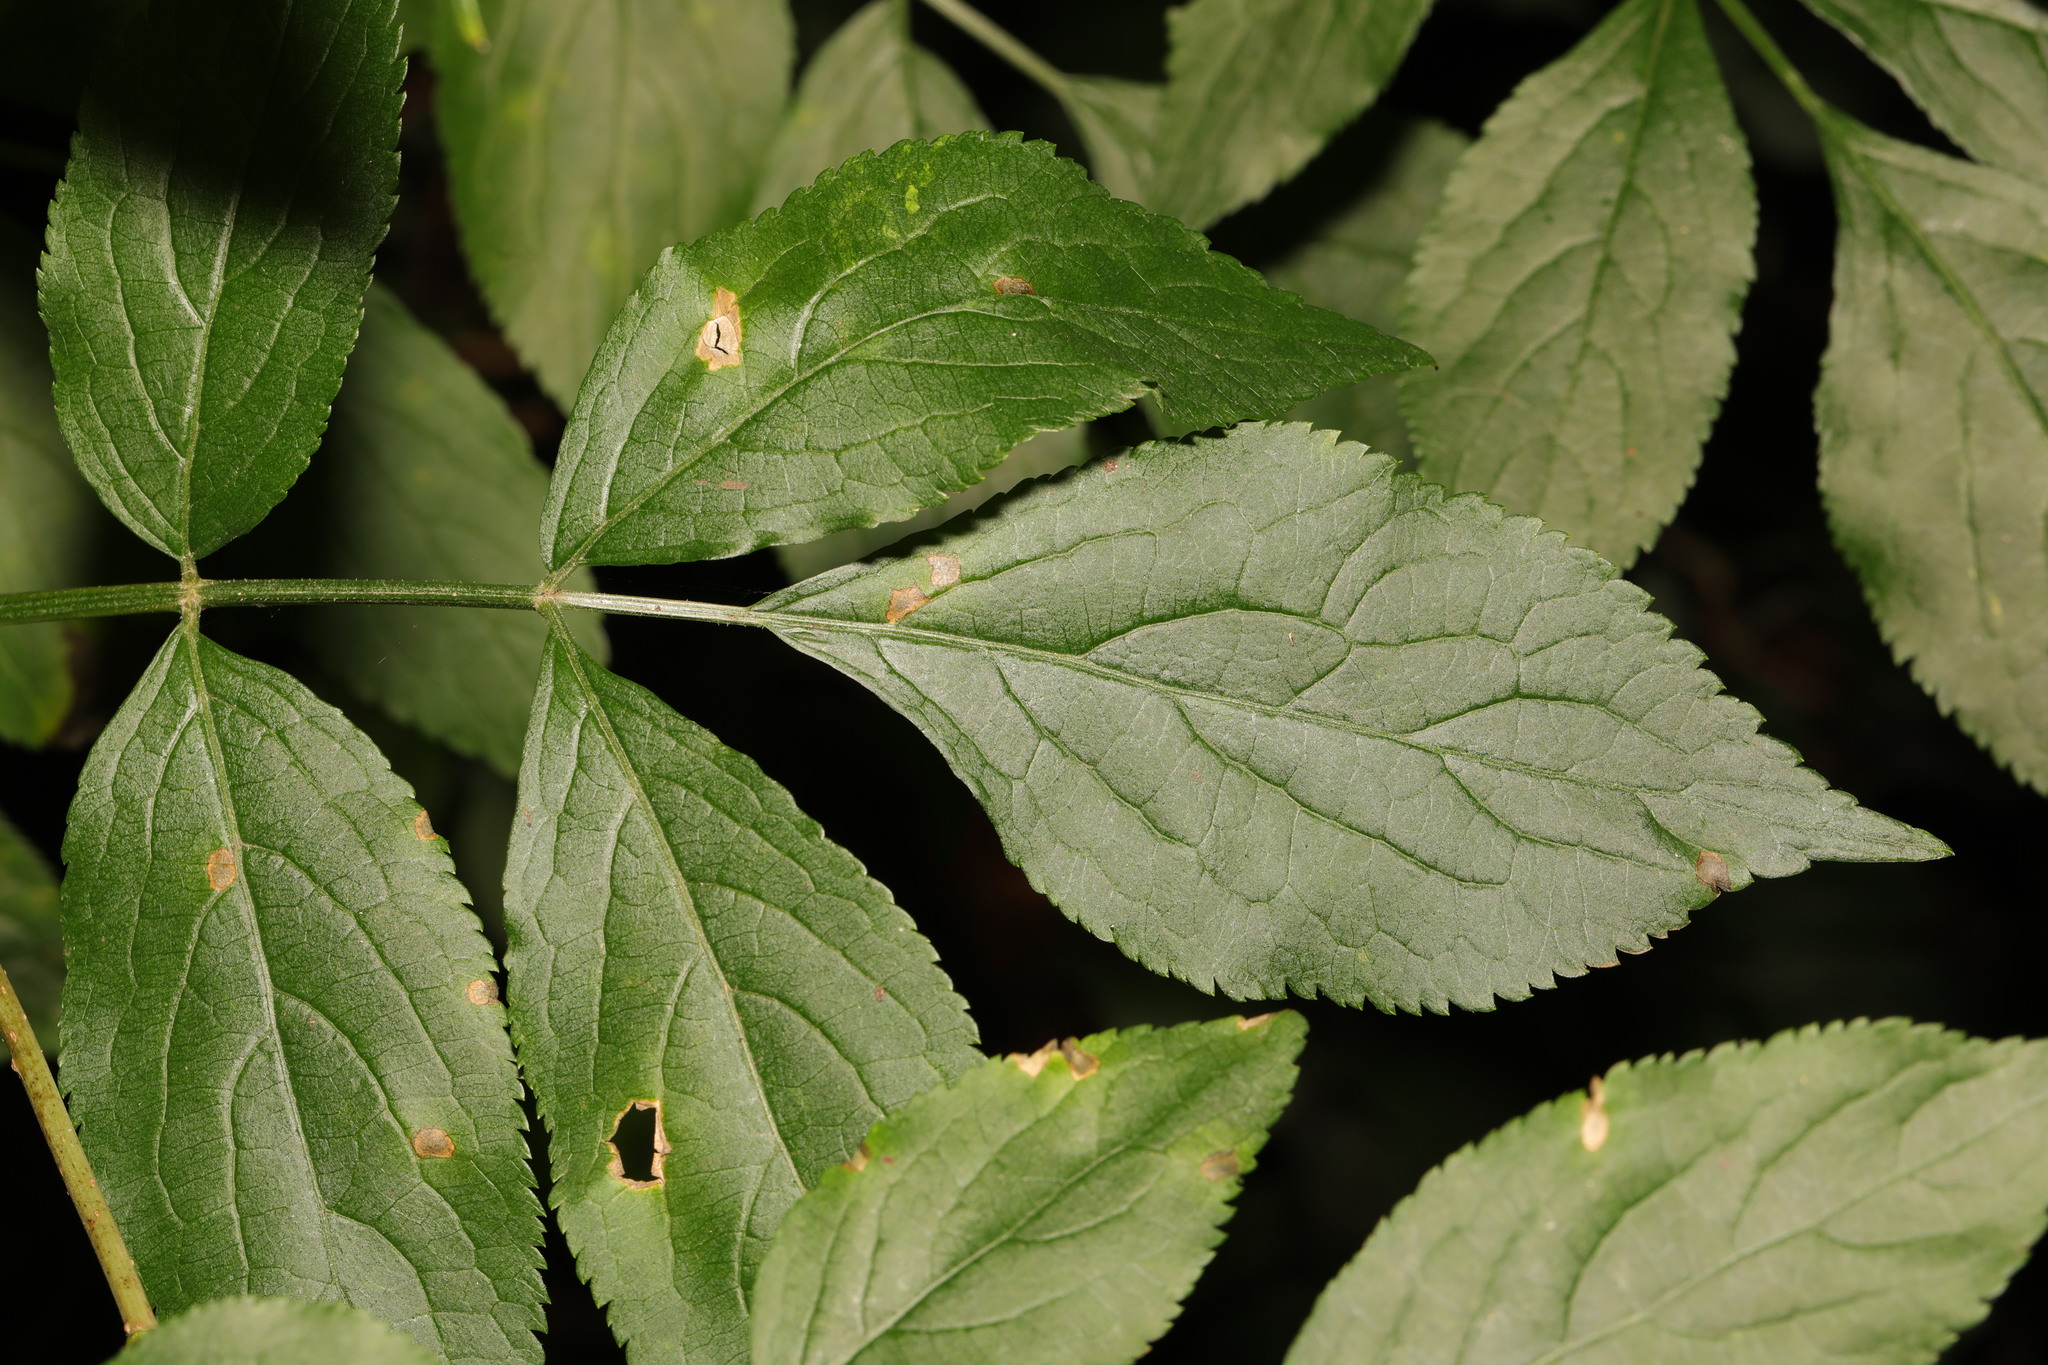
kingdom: Plantae
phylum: Tracheophyta
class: Magnoliopsida
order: Dipsacales
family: Viburnaceae
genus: Sambucus
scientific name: Sambucus nigra
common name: Elder
